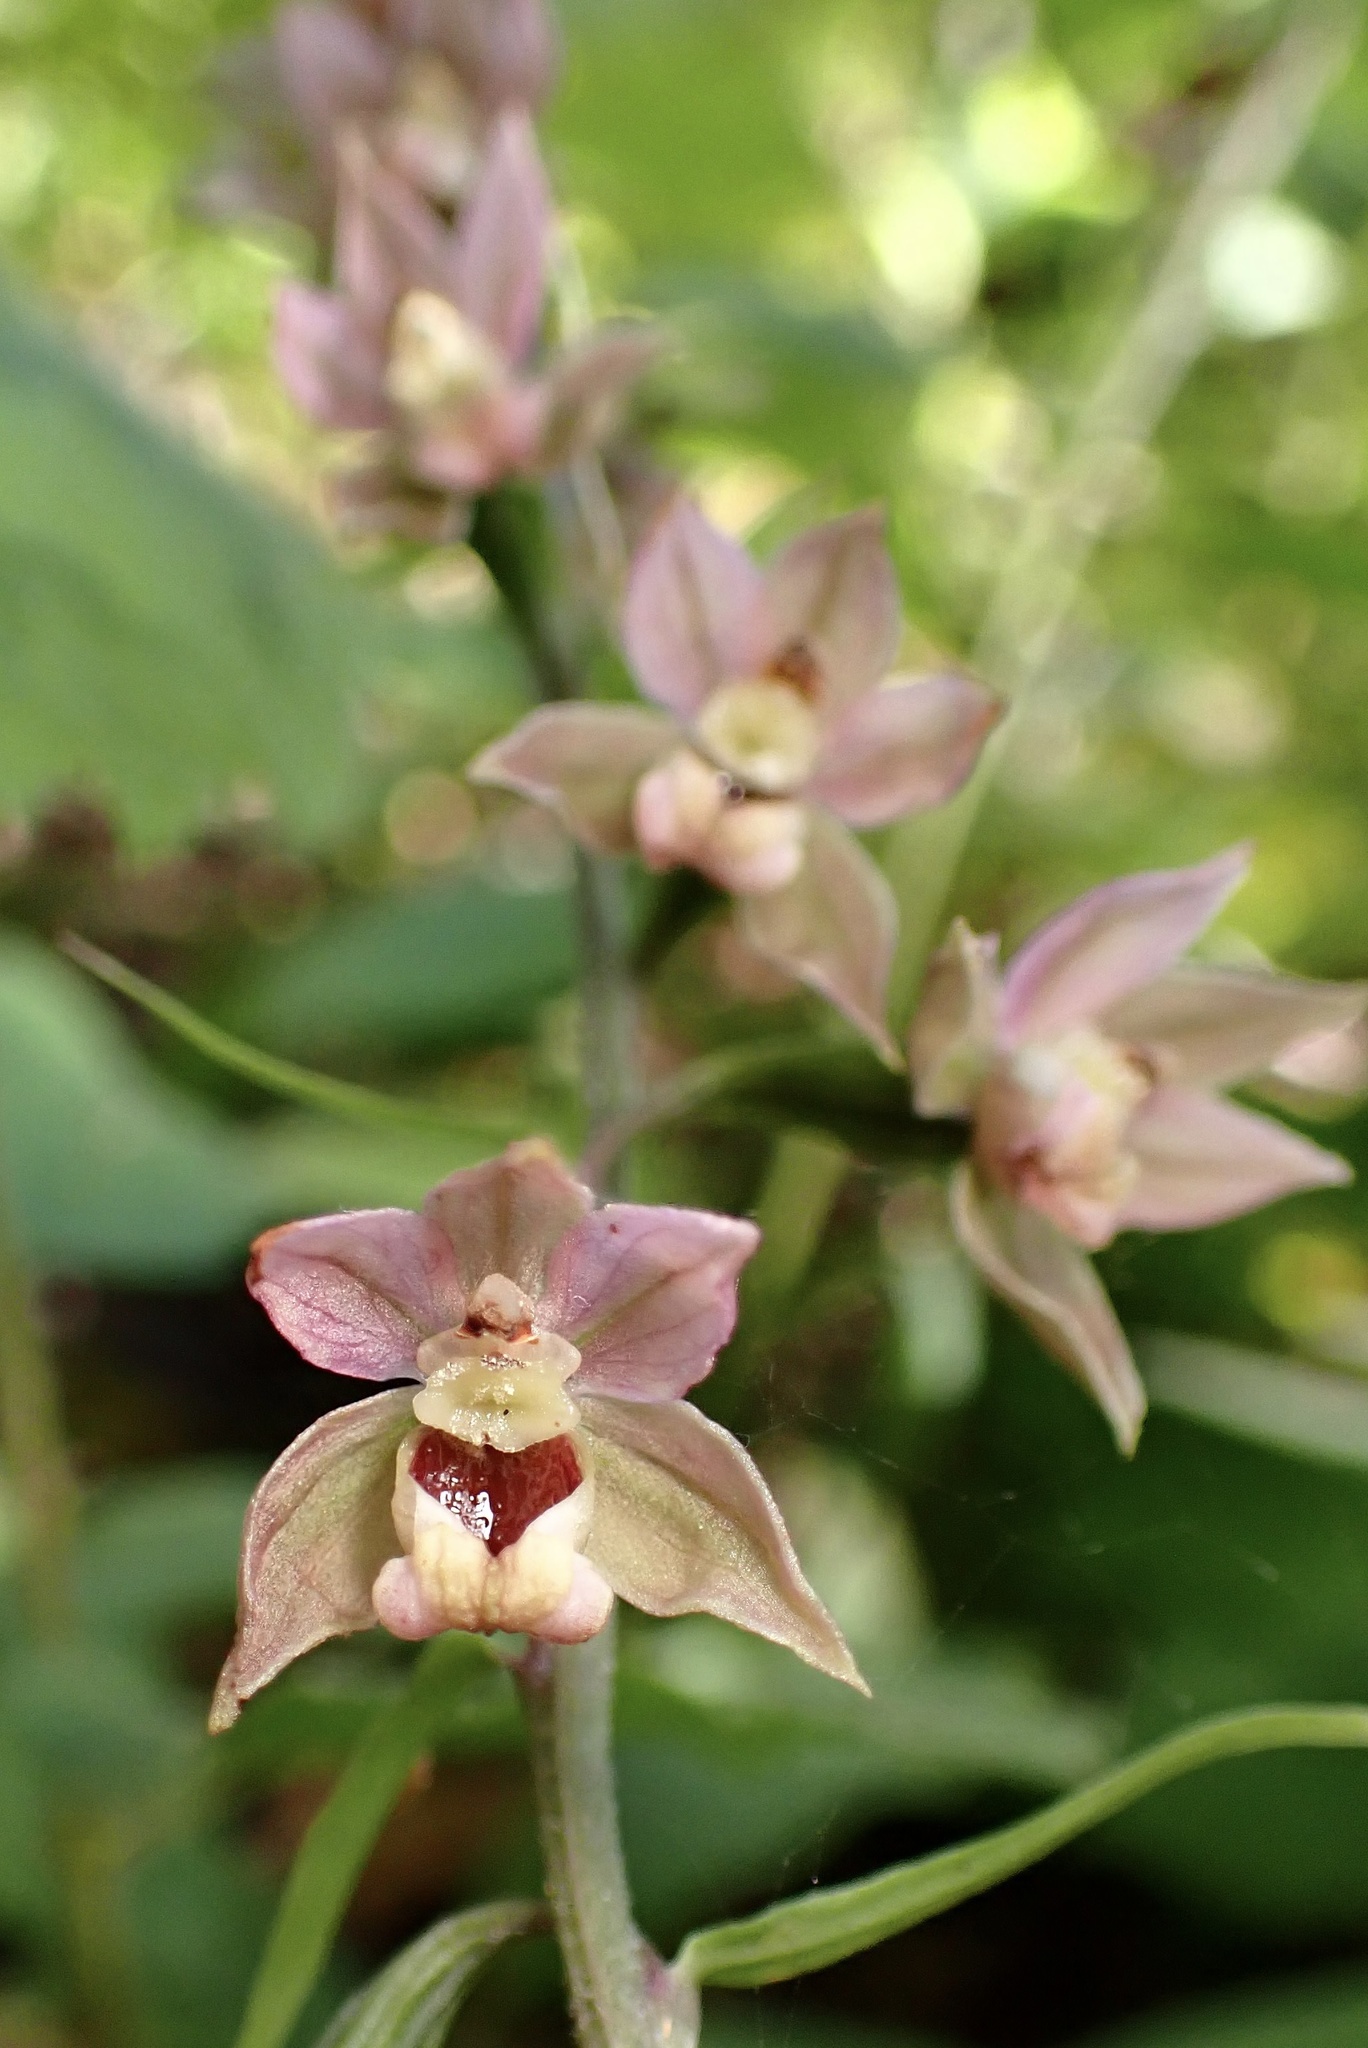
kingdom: Plantae
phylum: Tracheophyta
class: Liliopsida
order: Asparagales
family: Orchidaceae
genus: Epipactis
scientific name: Epipactis helleborine
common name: Broad-leaved helleborine
